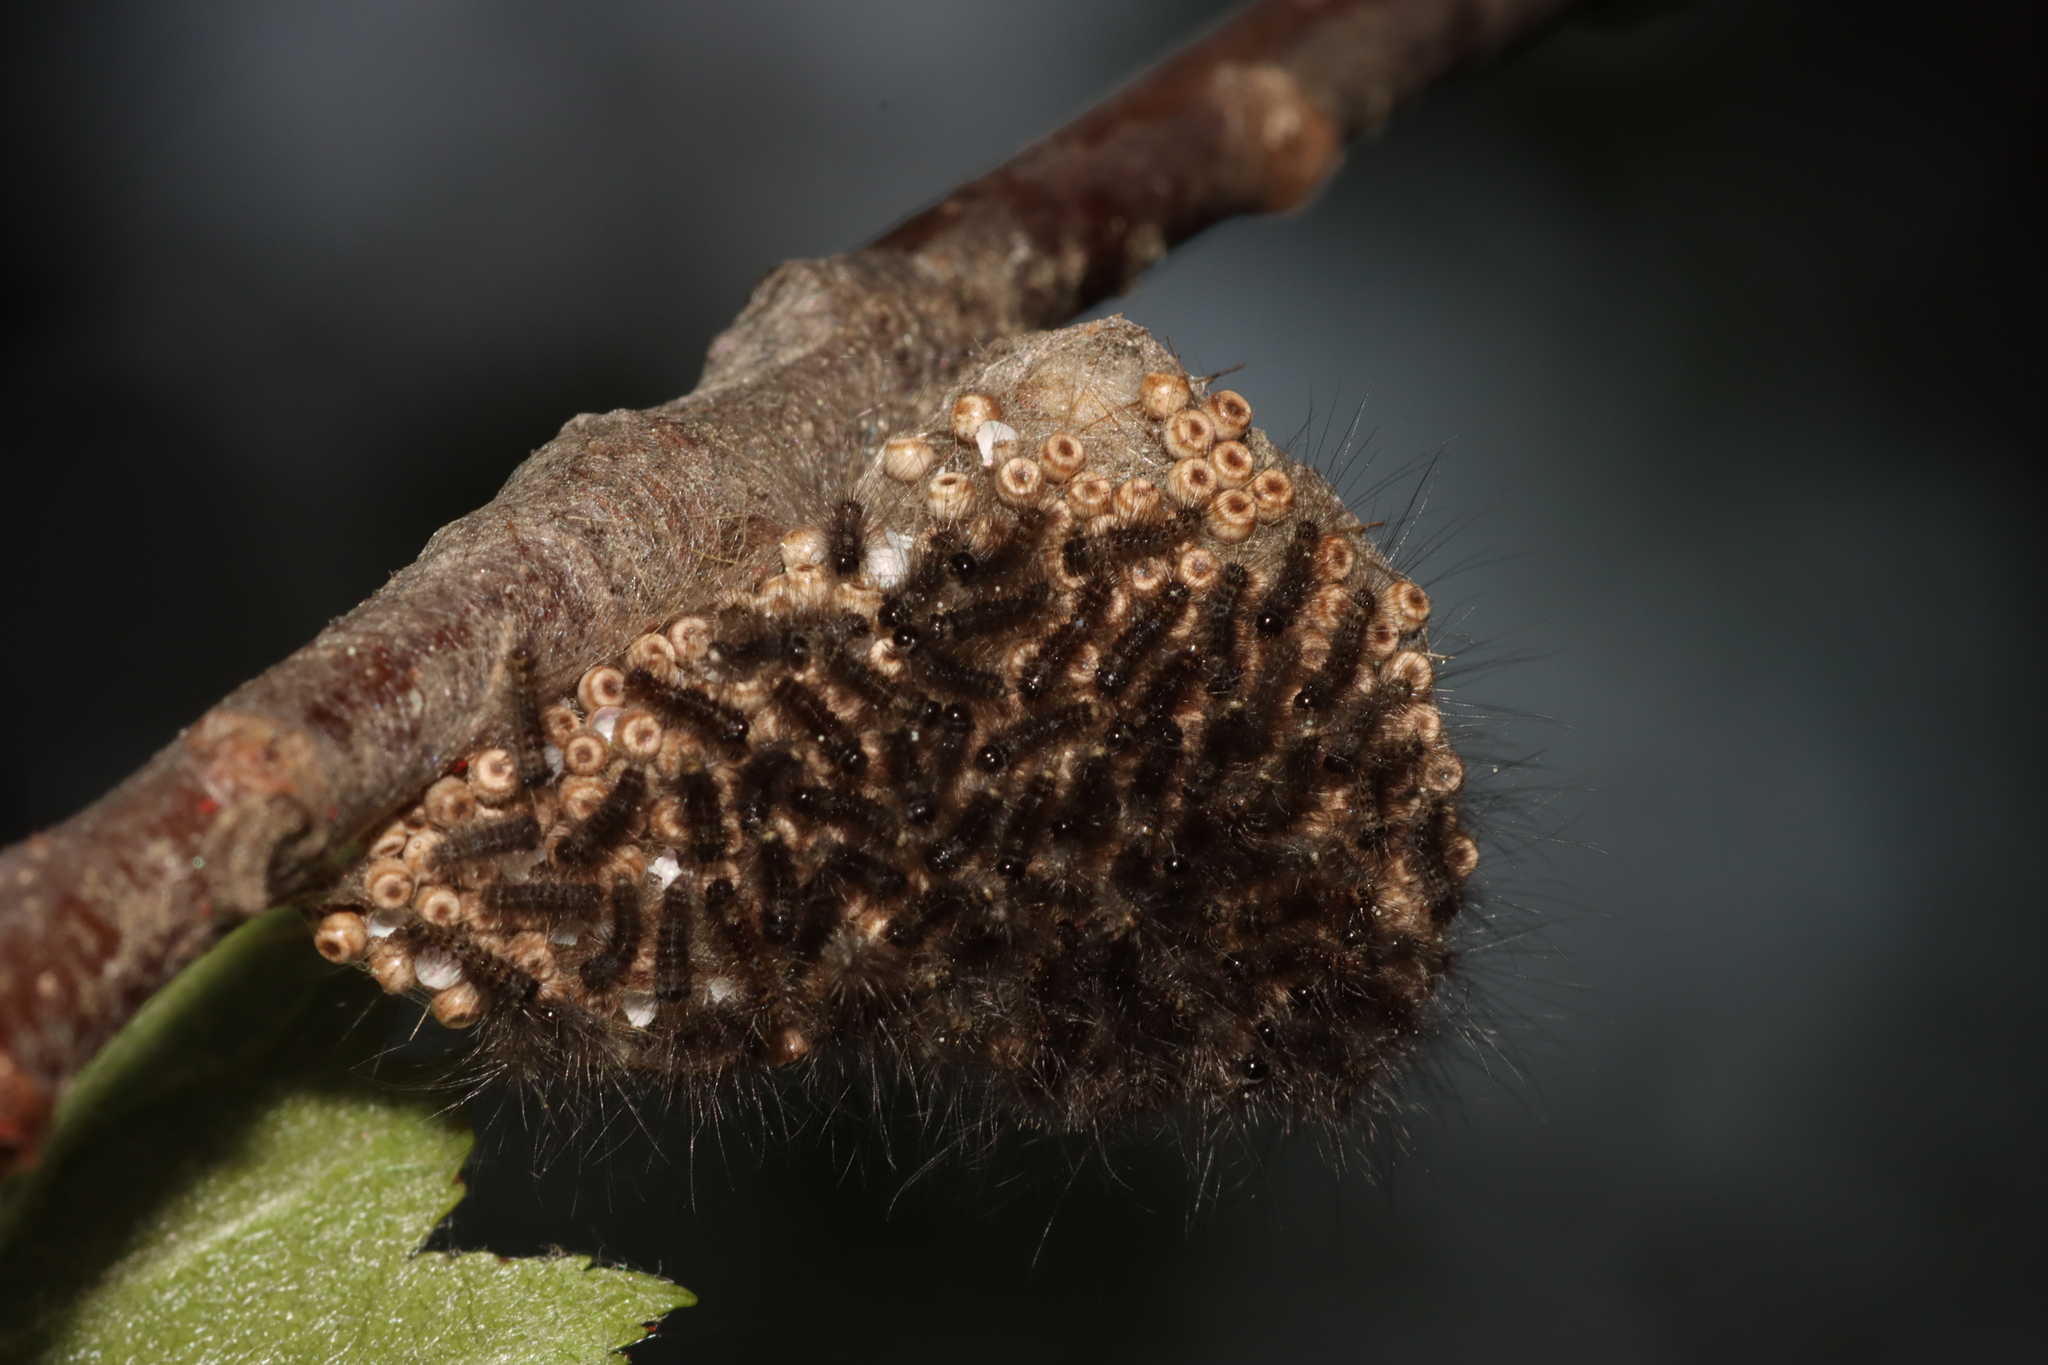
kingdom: Animalia
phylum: Arthropoda
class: Insecta
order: Lepidoptera
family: Erebidae
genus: Orgyia
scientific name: Orgyia antiqua
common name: Vapourer
